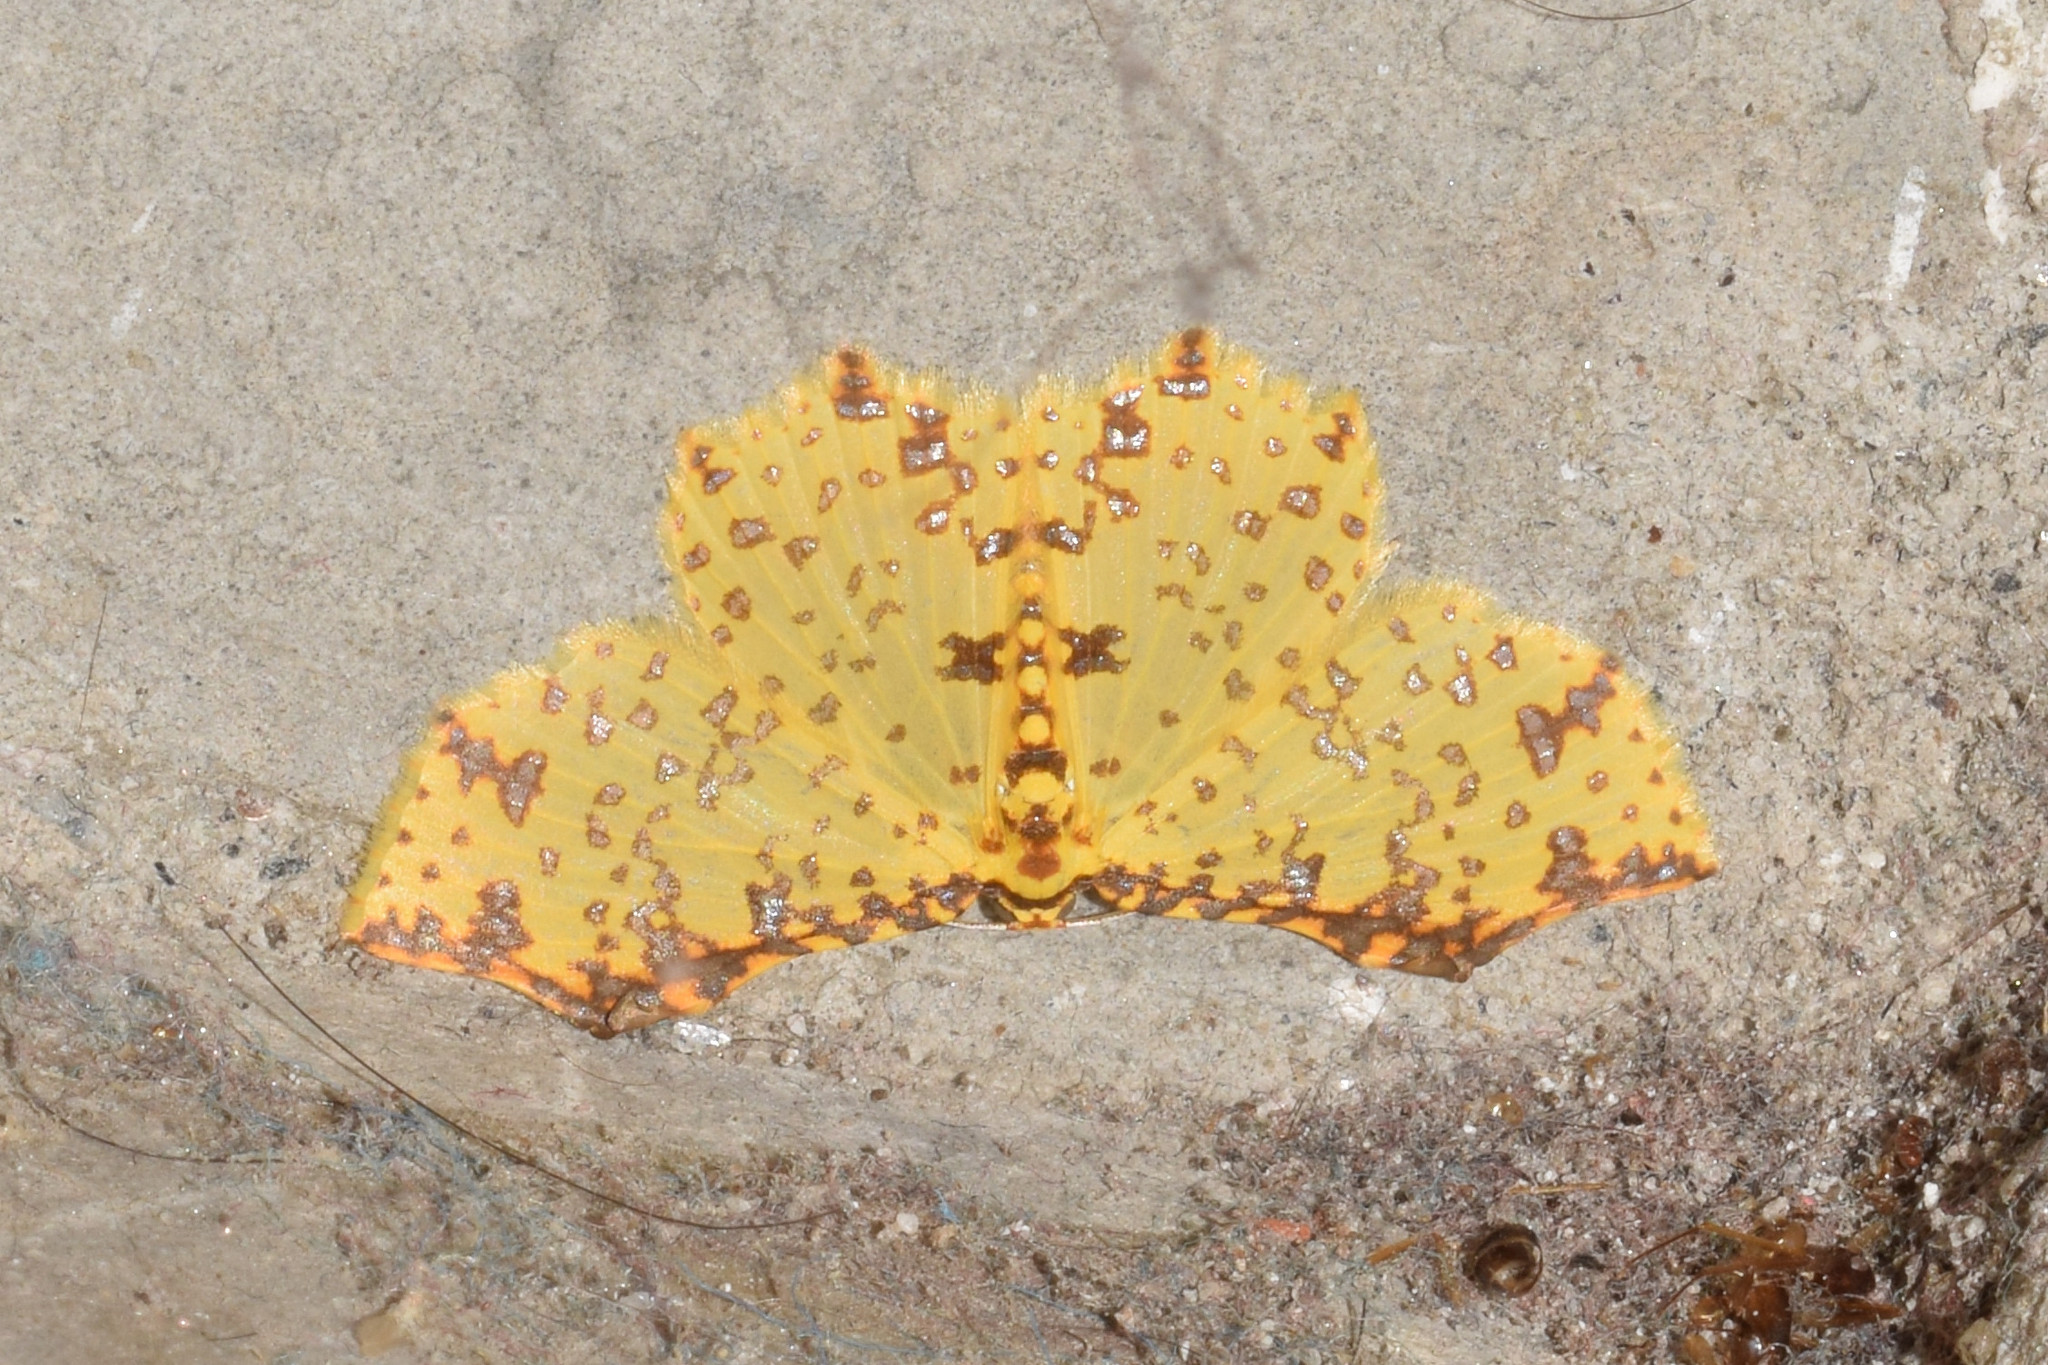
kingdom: Animalia
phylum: Arthropoda
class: Insecta
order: Lepidoptera
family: Geometridae
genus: Polynesia
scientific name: Polynesia truncapex
